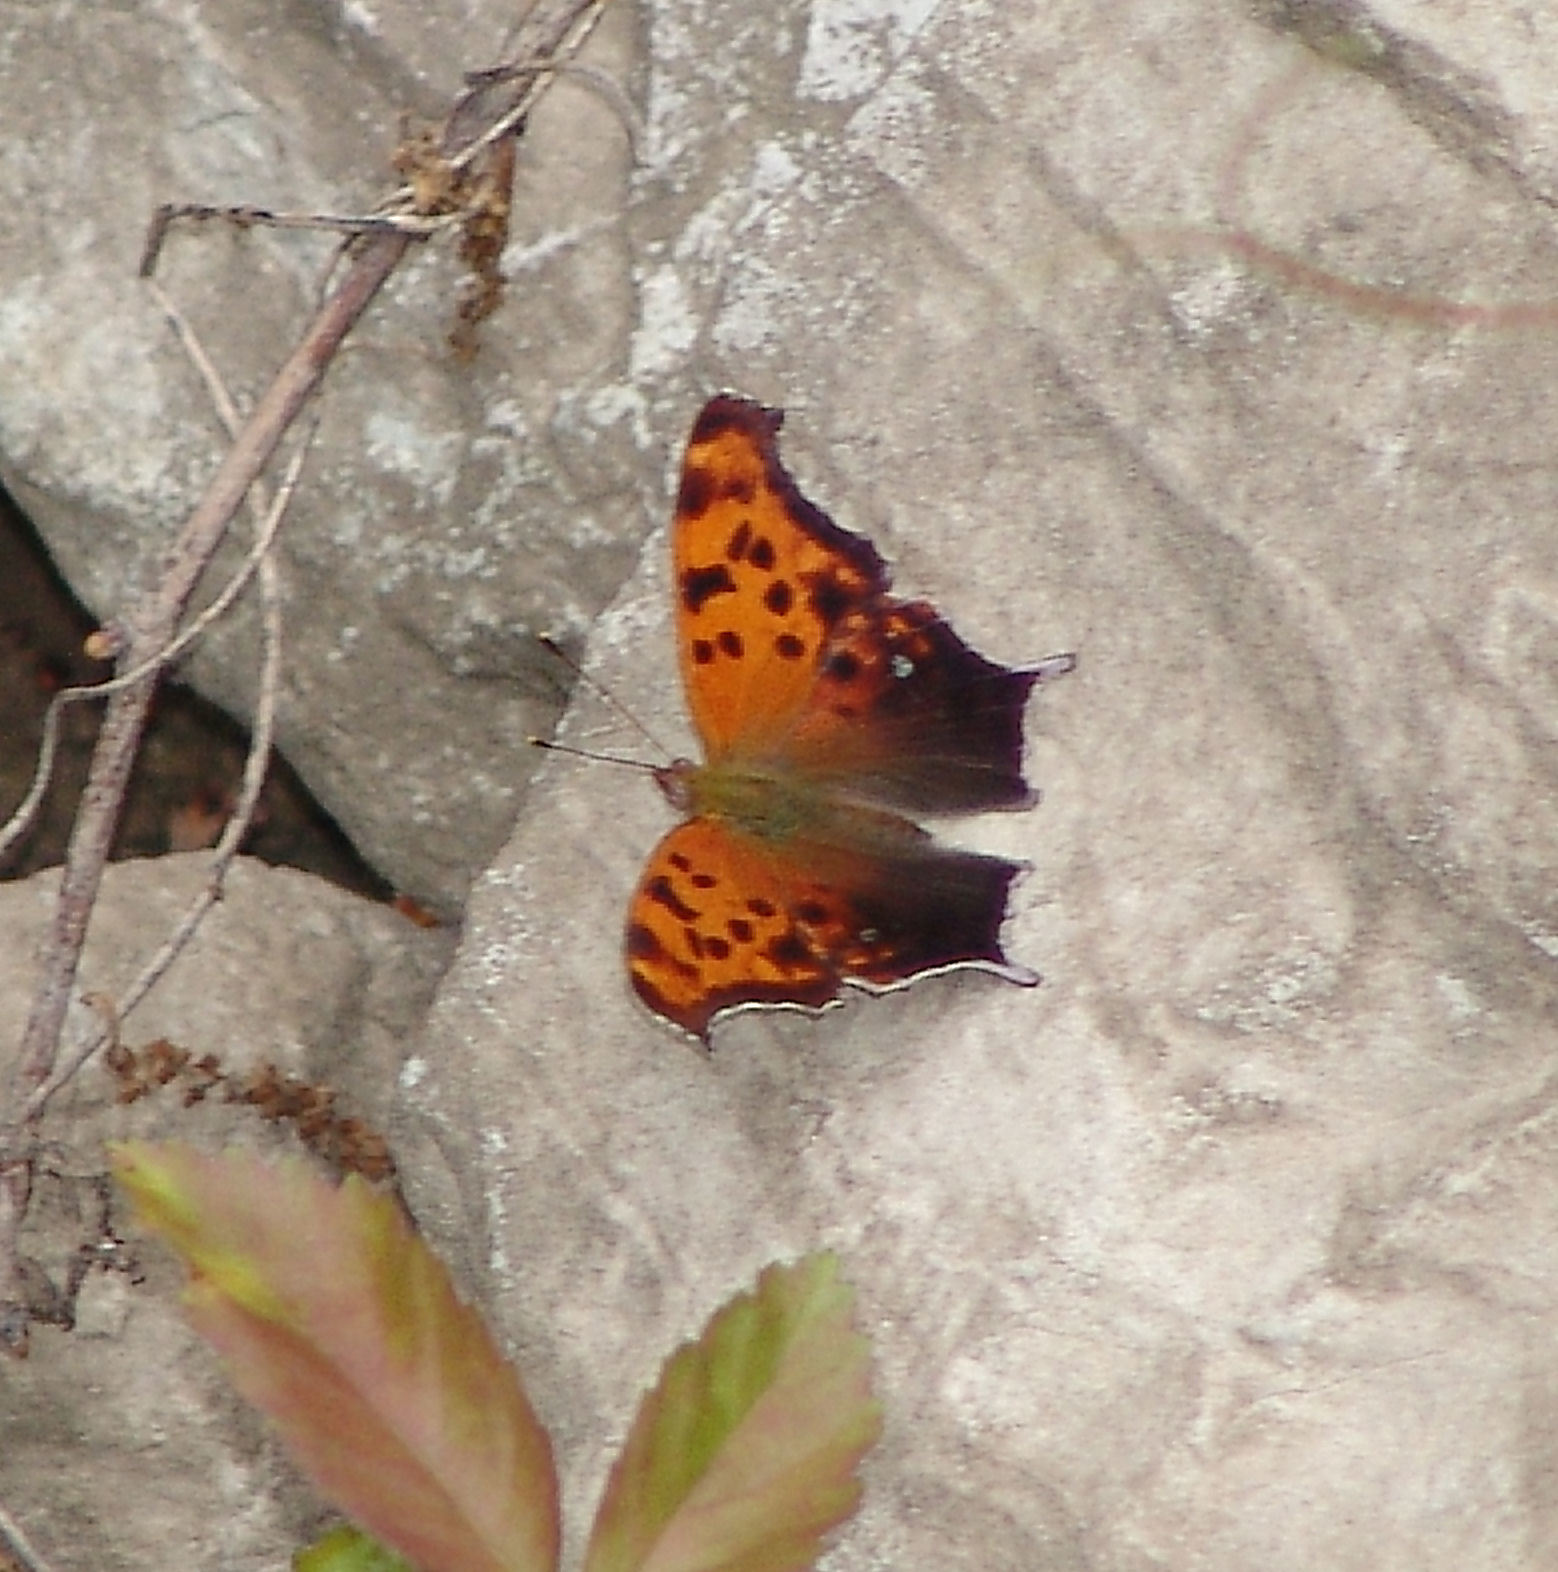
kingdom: Animalia
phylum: Arthropoda
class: Insecta
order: Lepidoptera
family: Nymphalidae
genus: Polygonia
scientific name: Polygonia interrogationis
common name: Question mark
